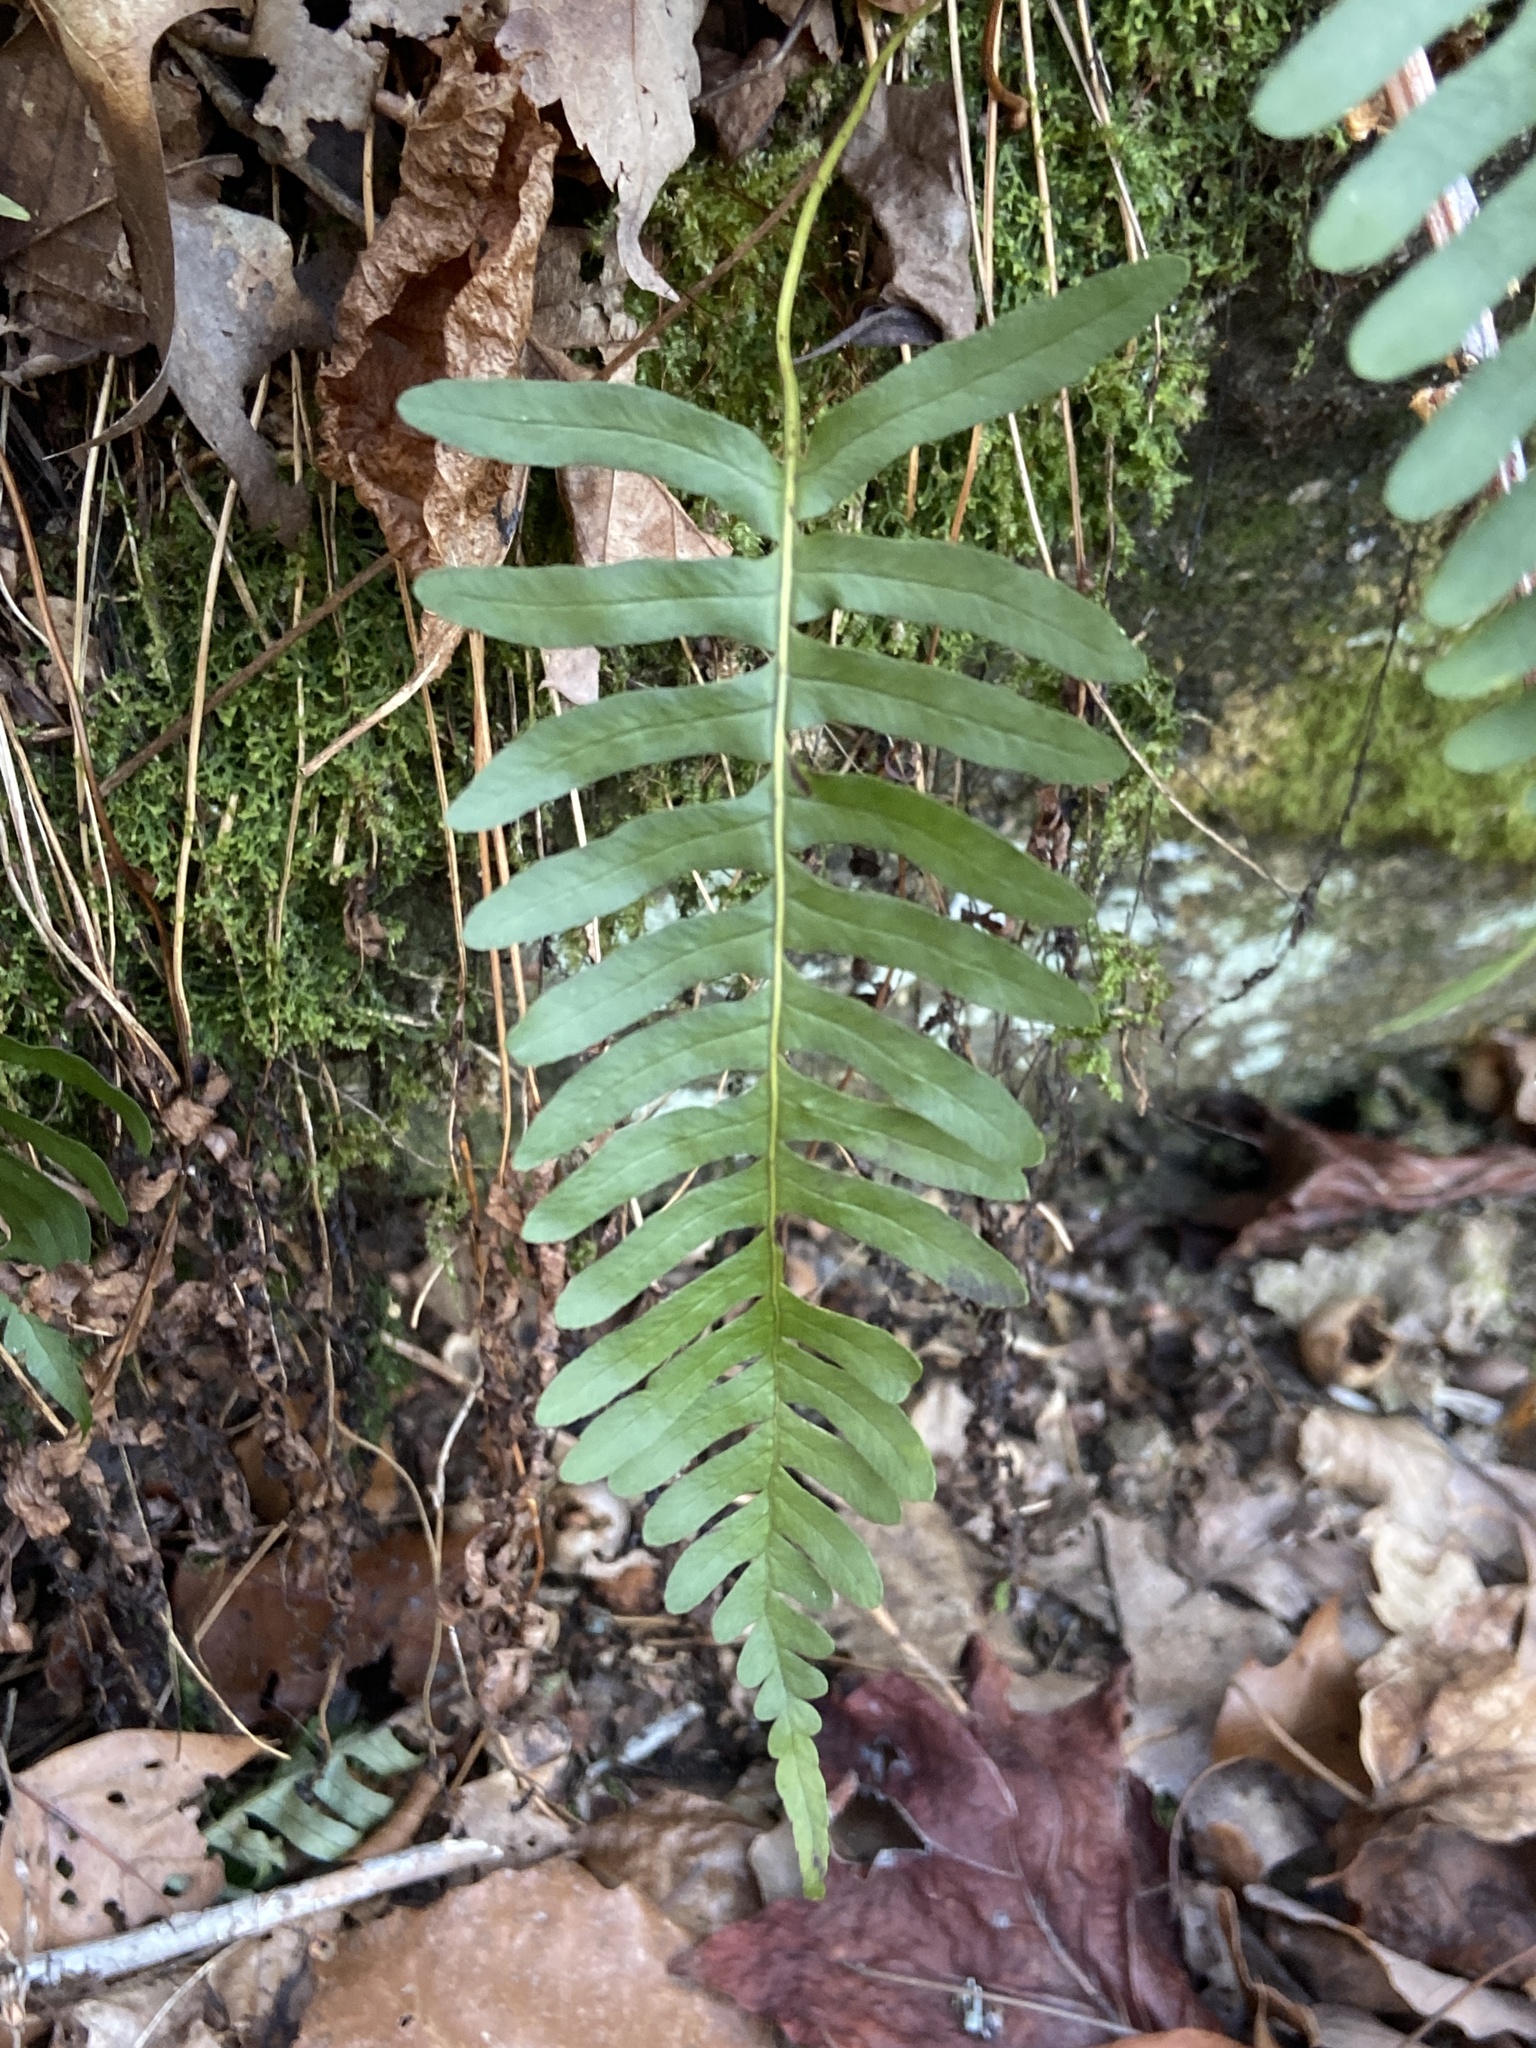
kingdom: Plantae
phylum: Tracheophyta
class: Polypodiopsida
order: Polypodiales
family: Polypodiaceae
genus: Polypodium
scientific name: Polypodium appalachianum
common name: Appalachian polypody
